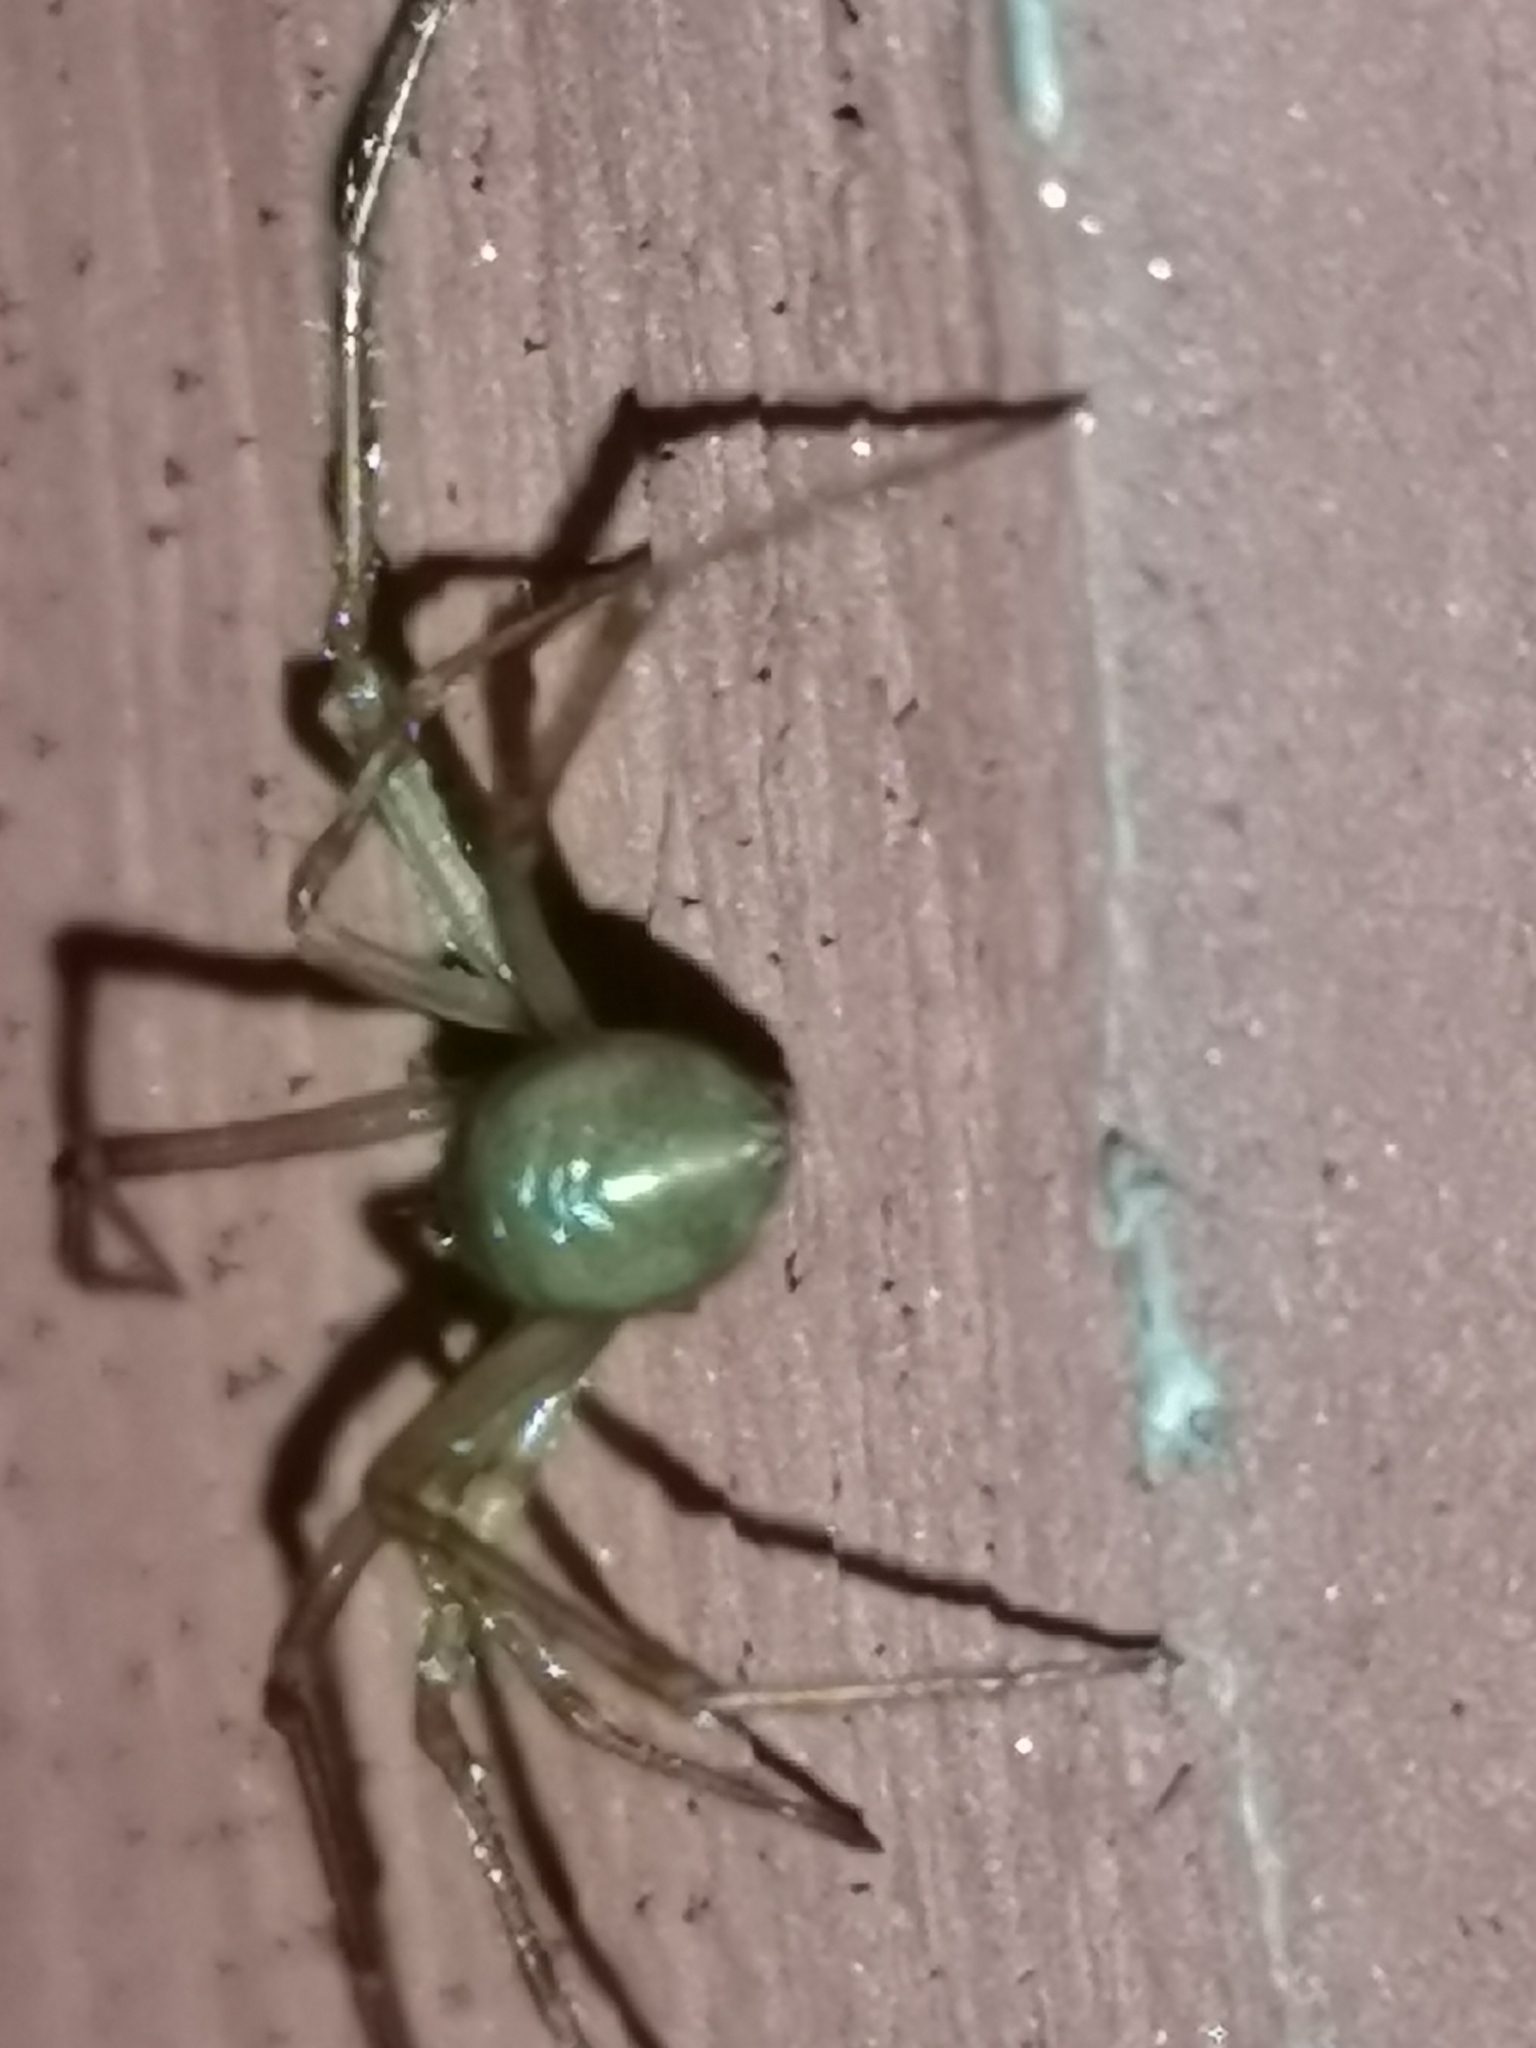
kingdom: Animalia
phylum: Arthropoda
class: Arachnida
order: Araneae
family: Pholcidae
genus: Psilochorus
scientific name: Psilochorus simoni
